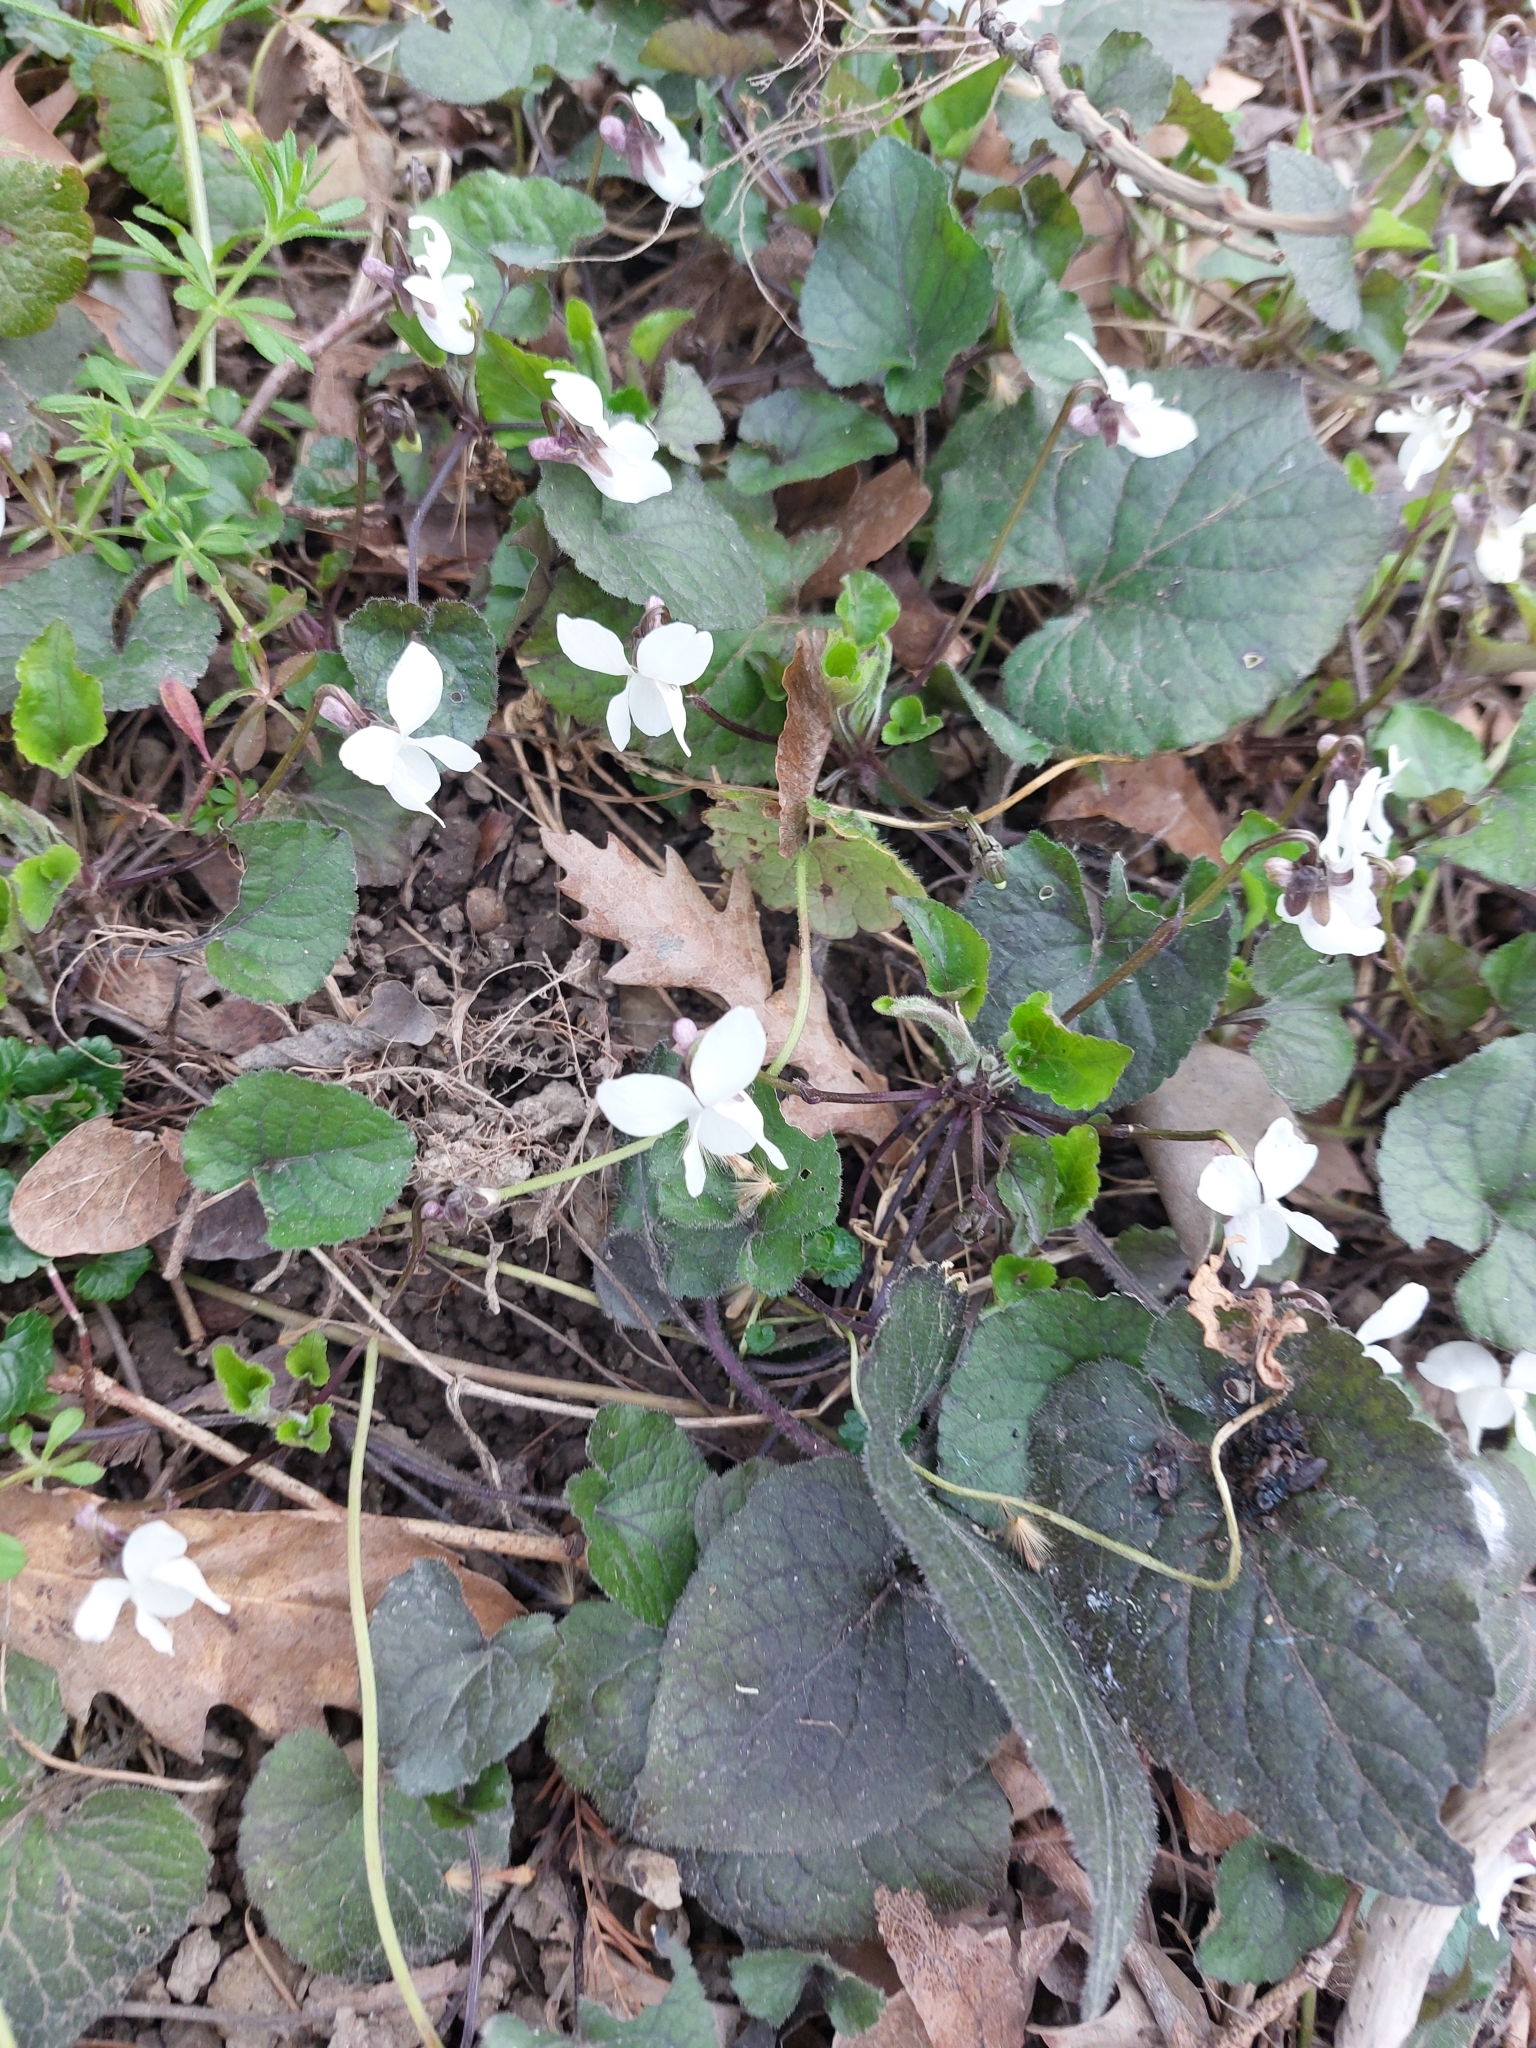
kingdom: Plantae
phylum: Tracheophyta
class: Magnoliopsida
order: Malpighiales
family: Violaceae
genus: Viola
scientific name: Viola odorata
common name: Sweet violet
